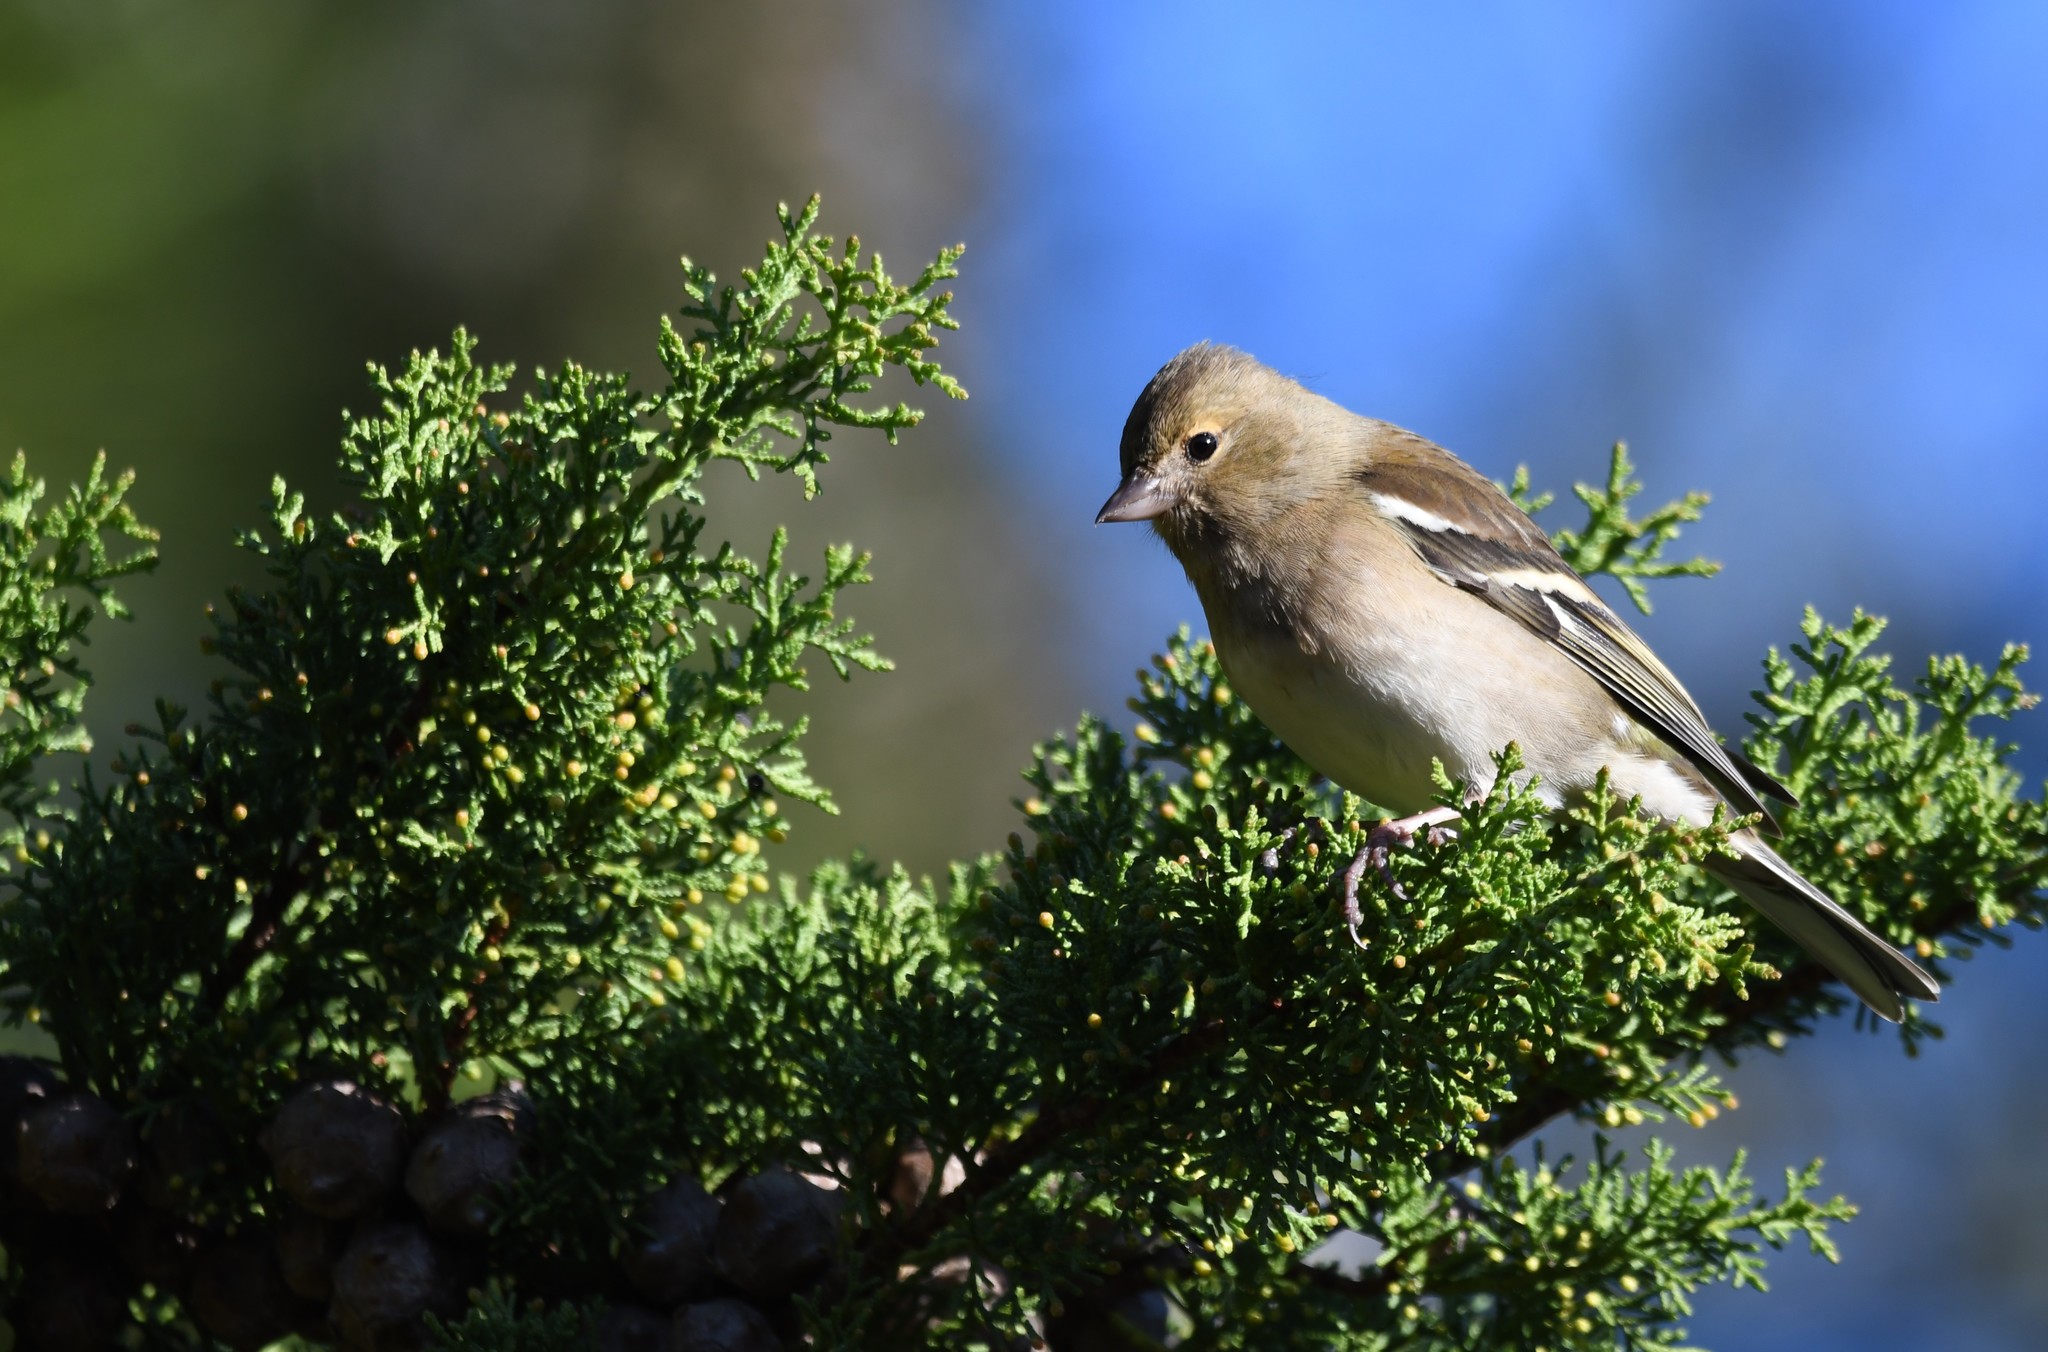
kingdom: Animalia
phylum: Chordata
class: Aves
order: Passeriformes
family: Fringillidae
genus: Fringilla
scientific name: Fringilla coelebs
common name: Common chaffinch
